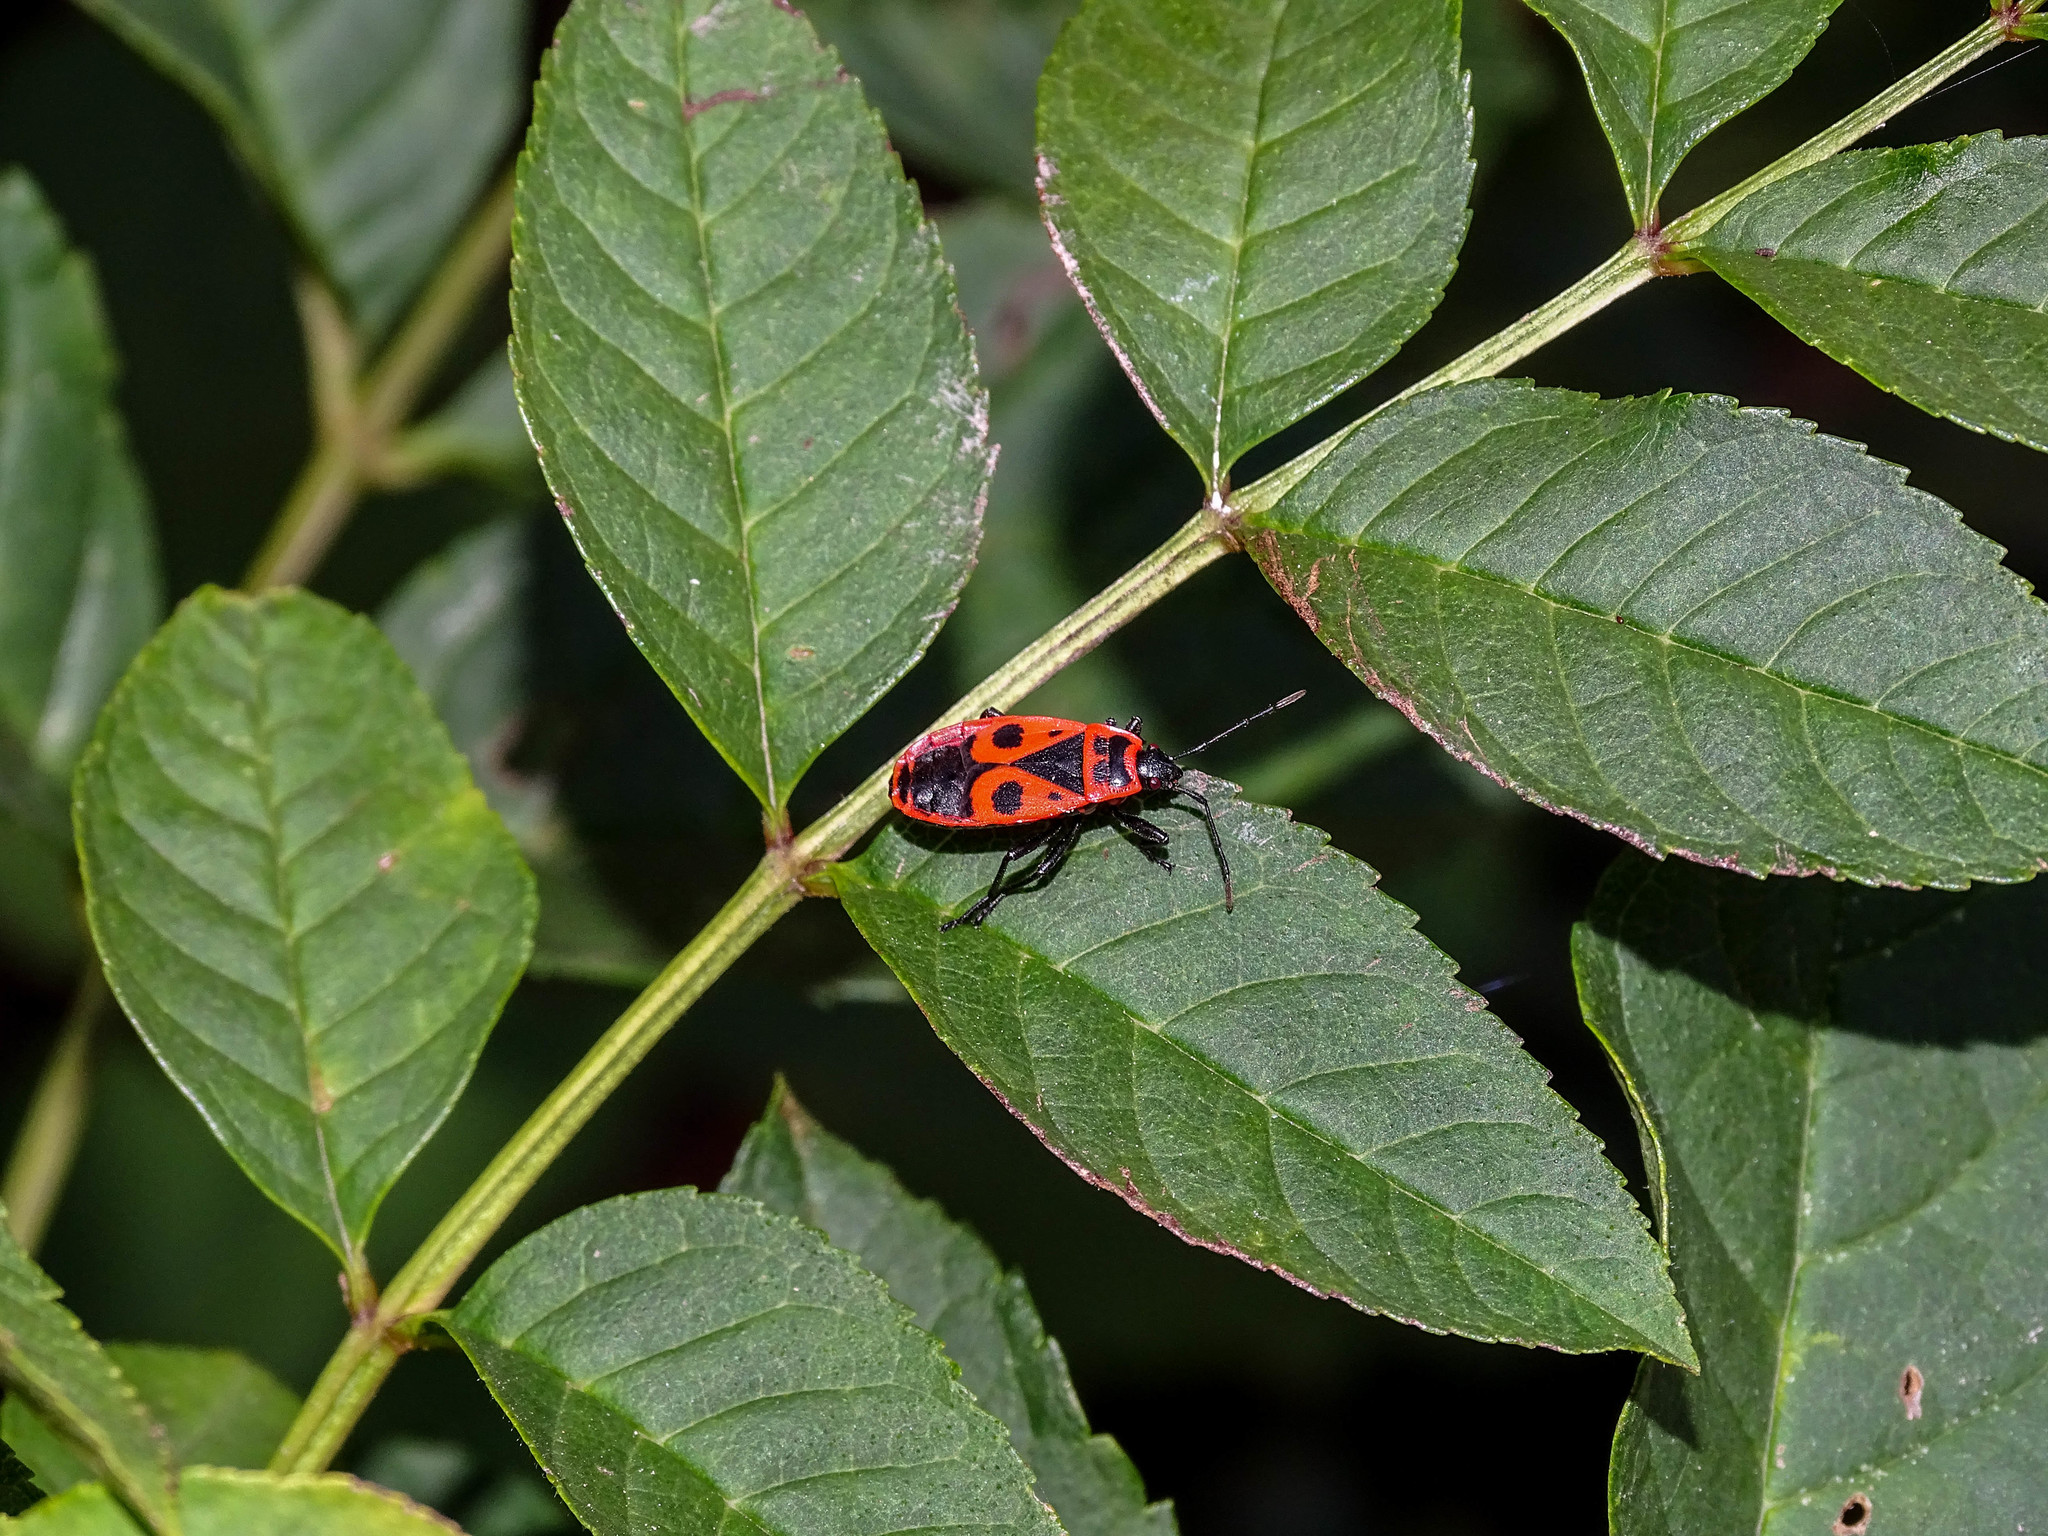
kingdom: Animalia
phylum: Arthropoda
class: Insecta
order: Hemiptera
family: Pyrrhocoridae
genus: Pyrrhocoris
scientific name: Pyrrhocoris apterus
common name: Firebug
